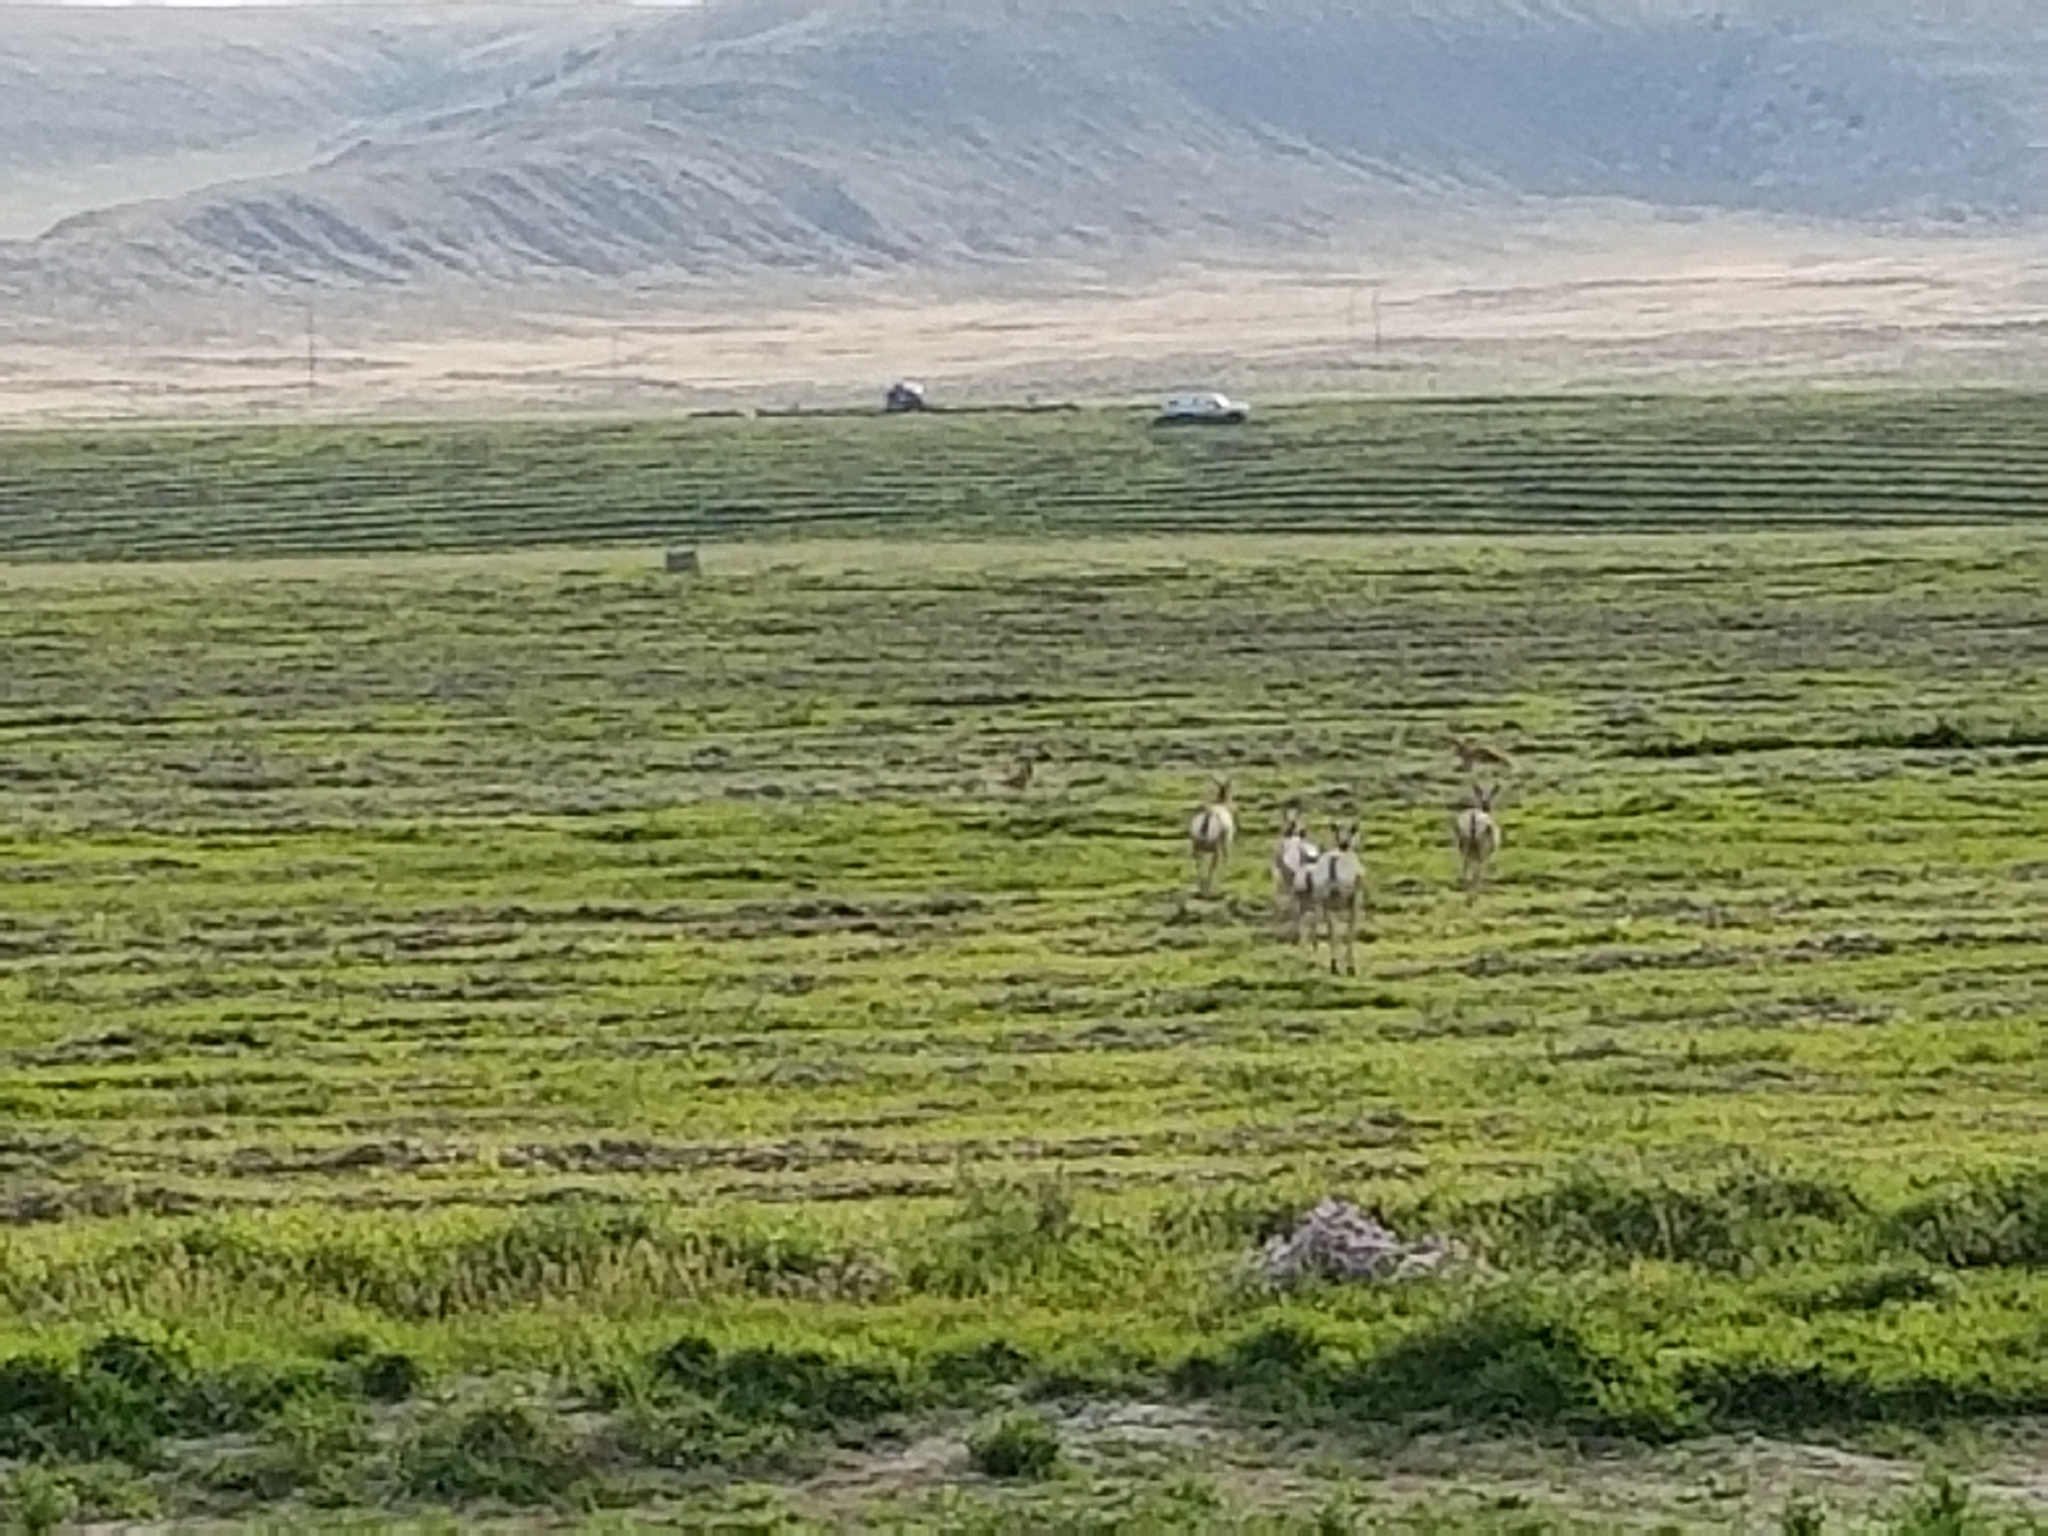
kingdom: Animalia
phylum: Chordata
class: Mammalia
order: Artiodactyla
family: Antilocapridae
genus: Antilocapra
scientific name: Antilocapra americana
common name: Pronghorn
